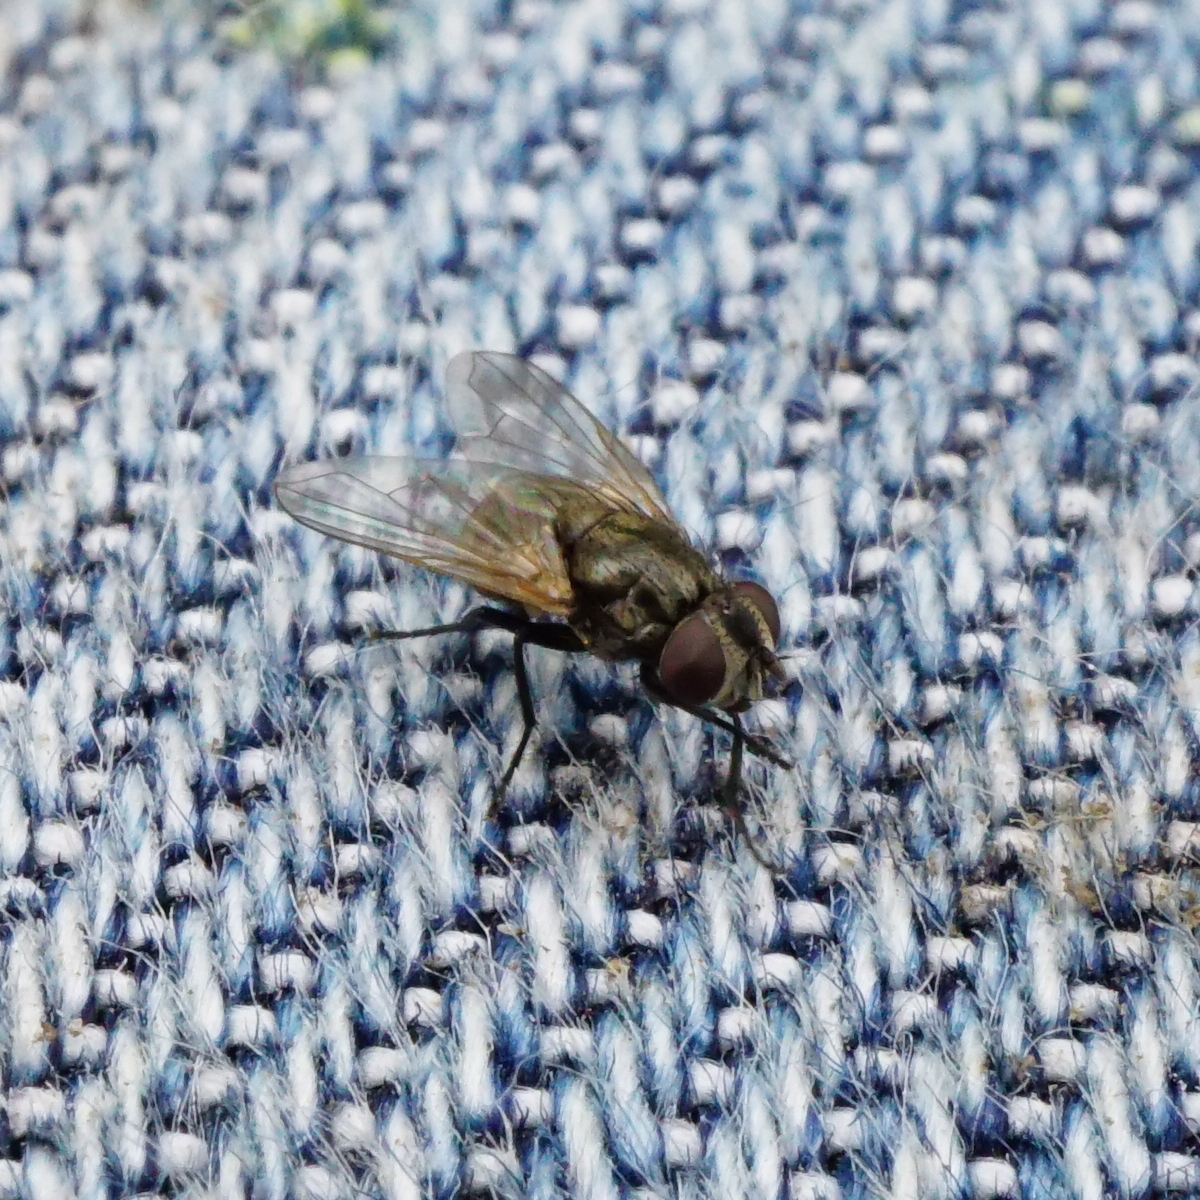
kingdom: Animalia
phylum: Arthropoda
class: Insecta
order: Diptera
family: Muscidae
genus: Musca
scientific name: Musca tempestiva
